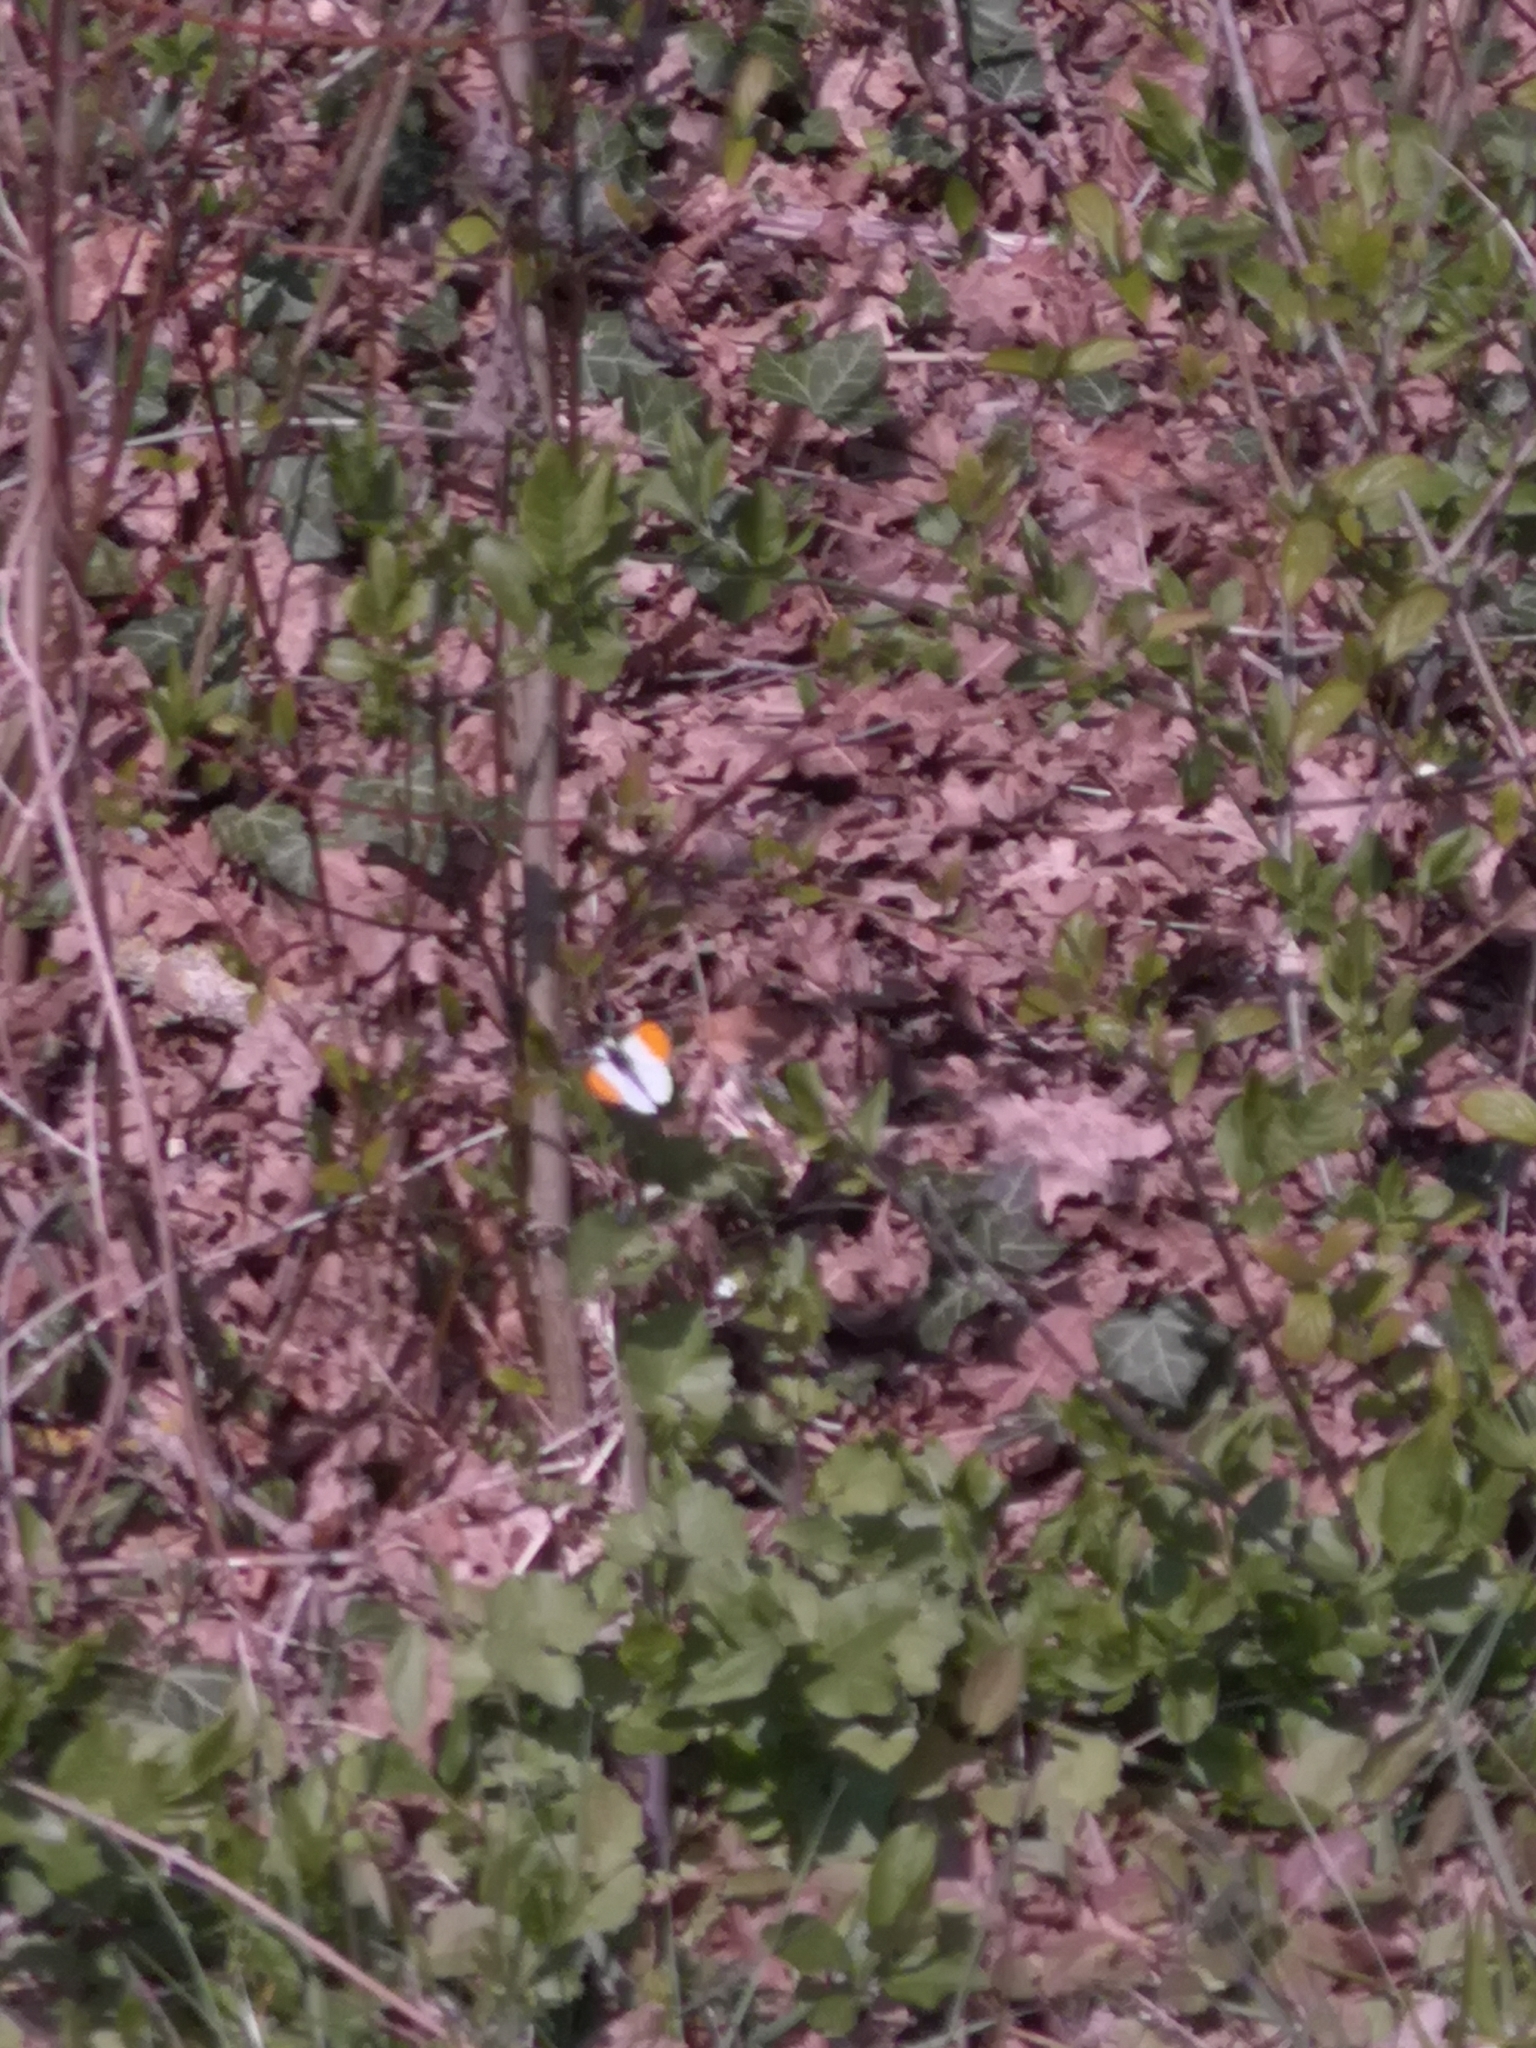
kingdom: Animalia
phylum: Arthropoda
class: Insecta
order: Lepidoptera
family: Pieridae
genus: Anthocharis
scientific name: Anthocharis cardamines
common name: Orange-tip
